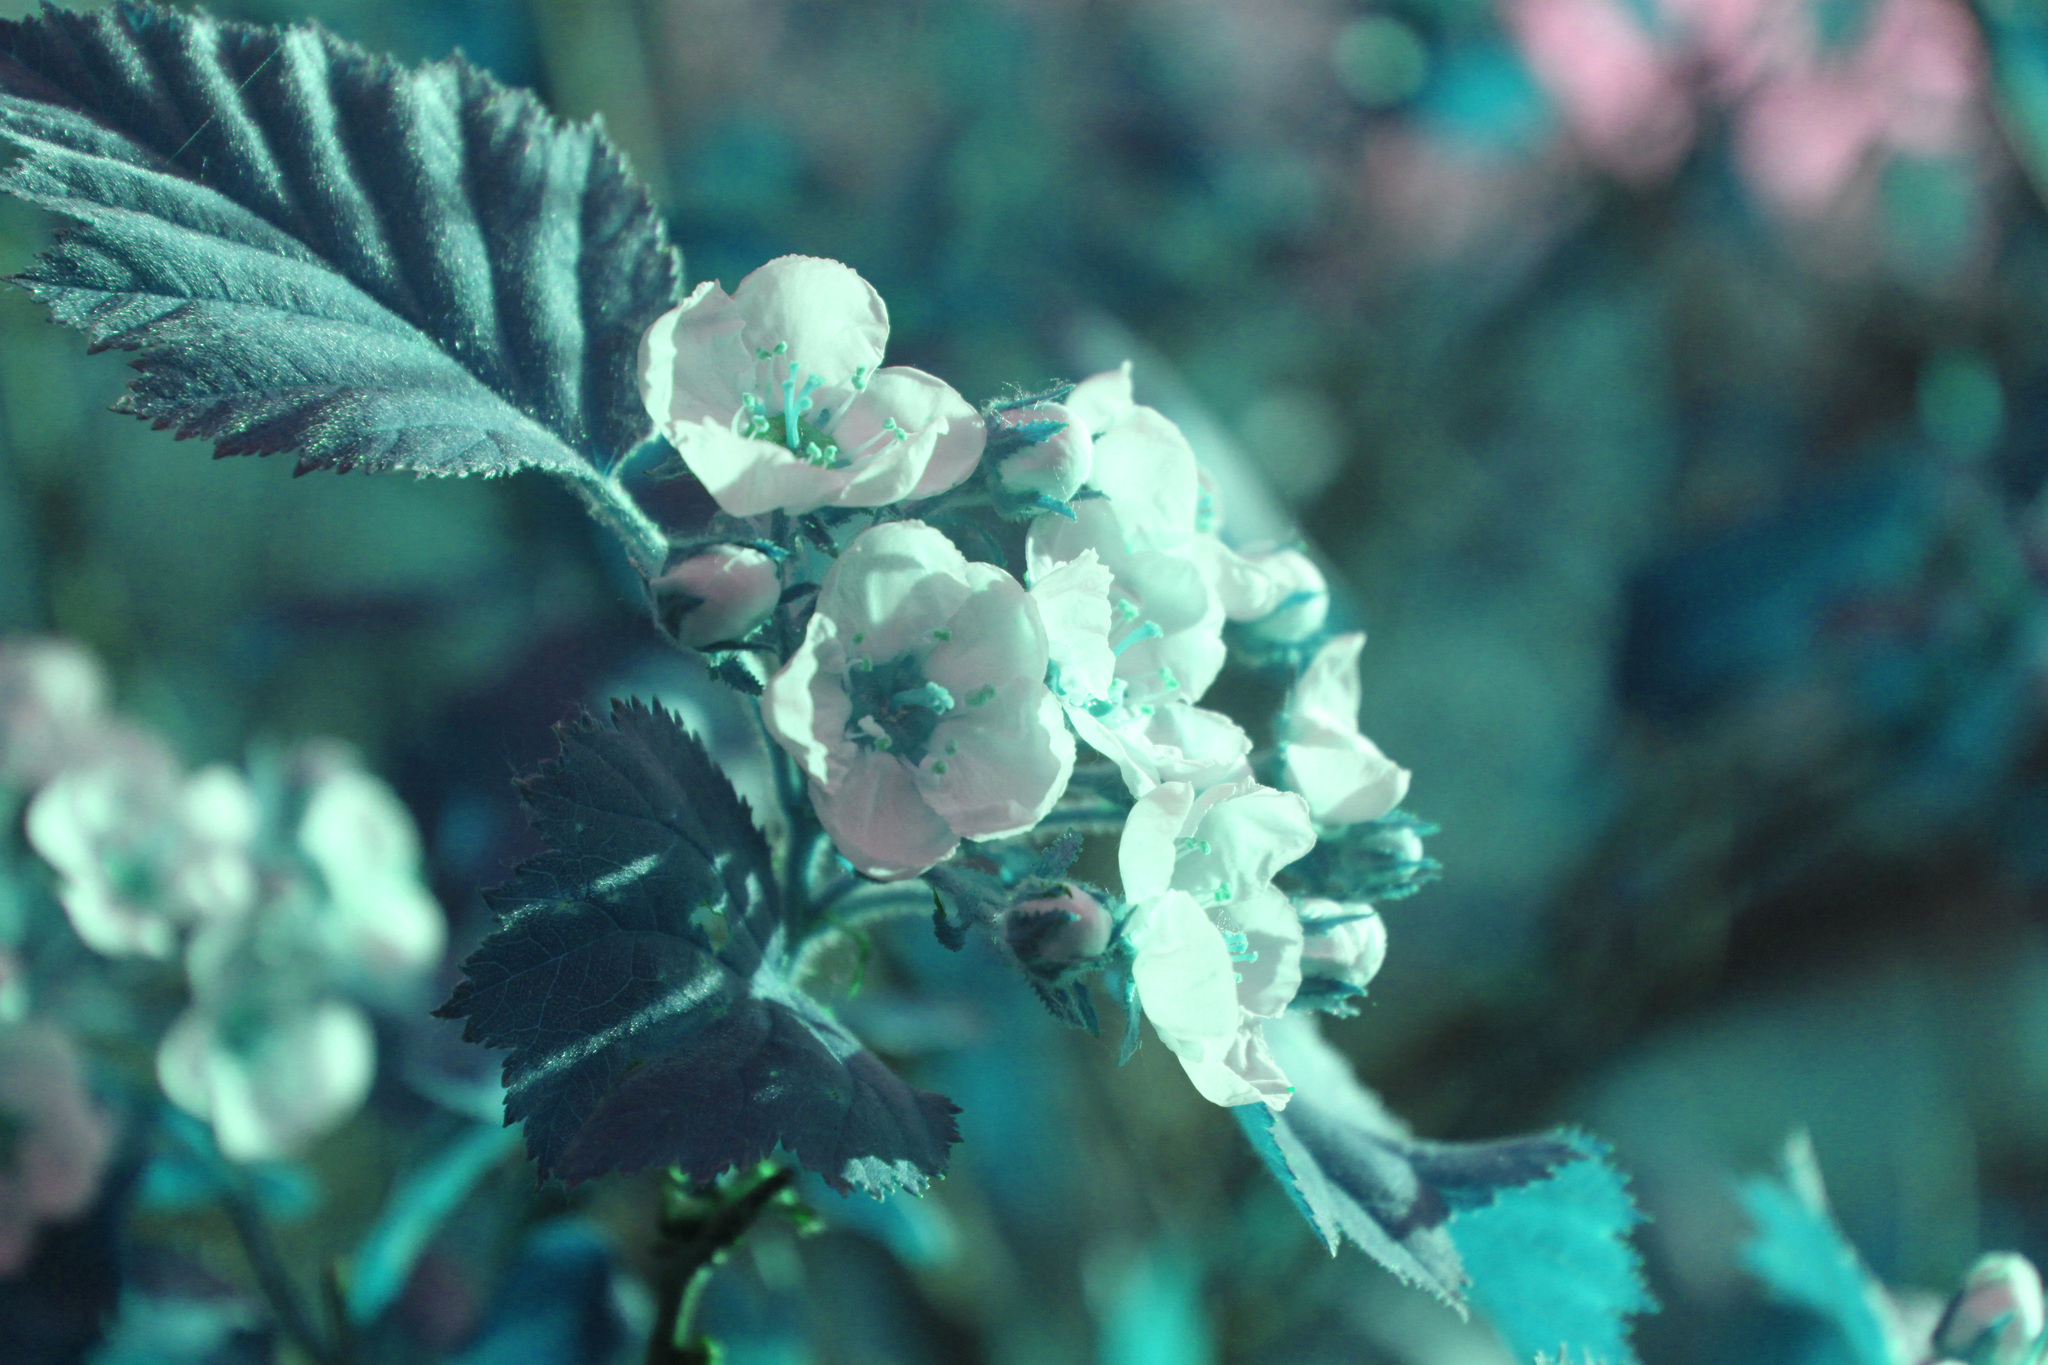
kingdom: Plantae
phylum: Tracheophyta
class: Magnoliopsida
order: Rosales
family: Rosaceae
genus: Crataegus
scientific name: Crataegus submollis
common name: Hairy cockspurthorn
